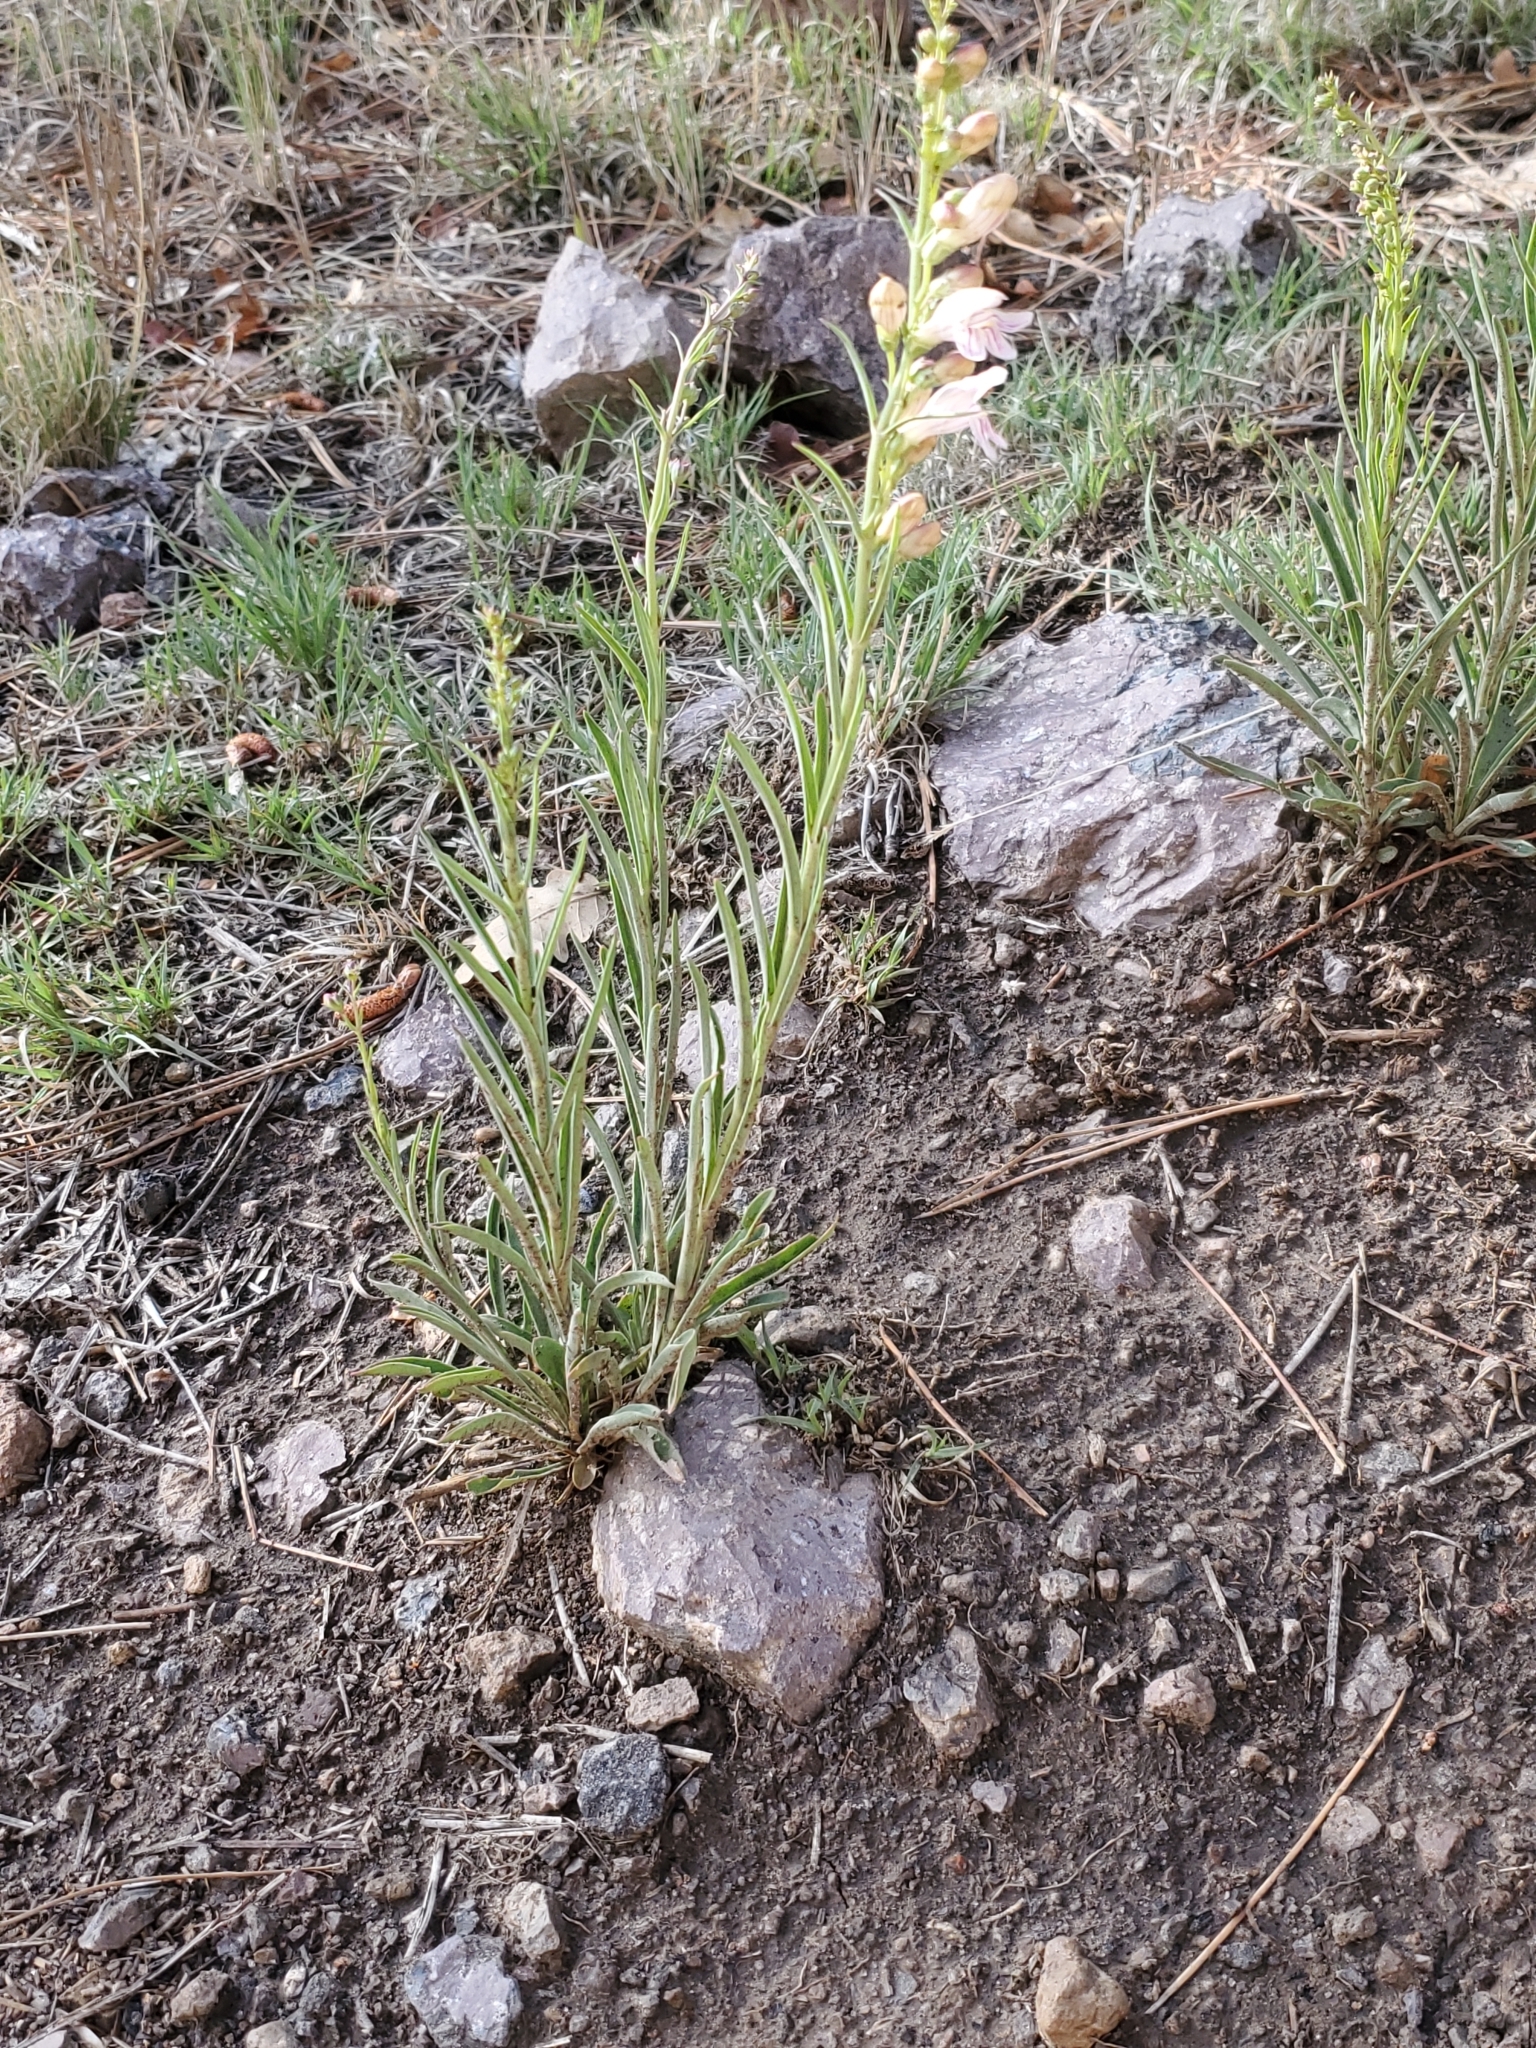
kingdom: Plantae
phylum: Tracheophyta
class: Magnoliopsida
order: Lamiales
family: Plantaginaceae
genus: Penstemon
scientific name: Penstemon virgatus
